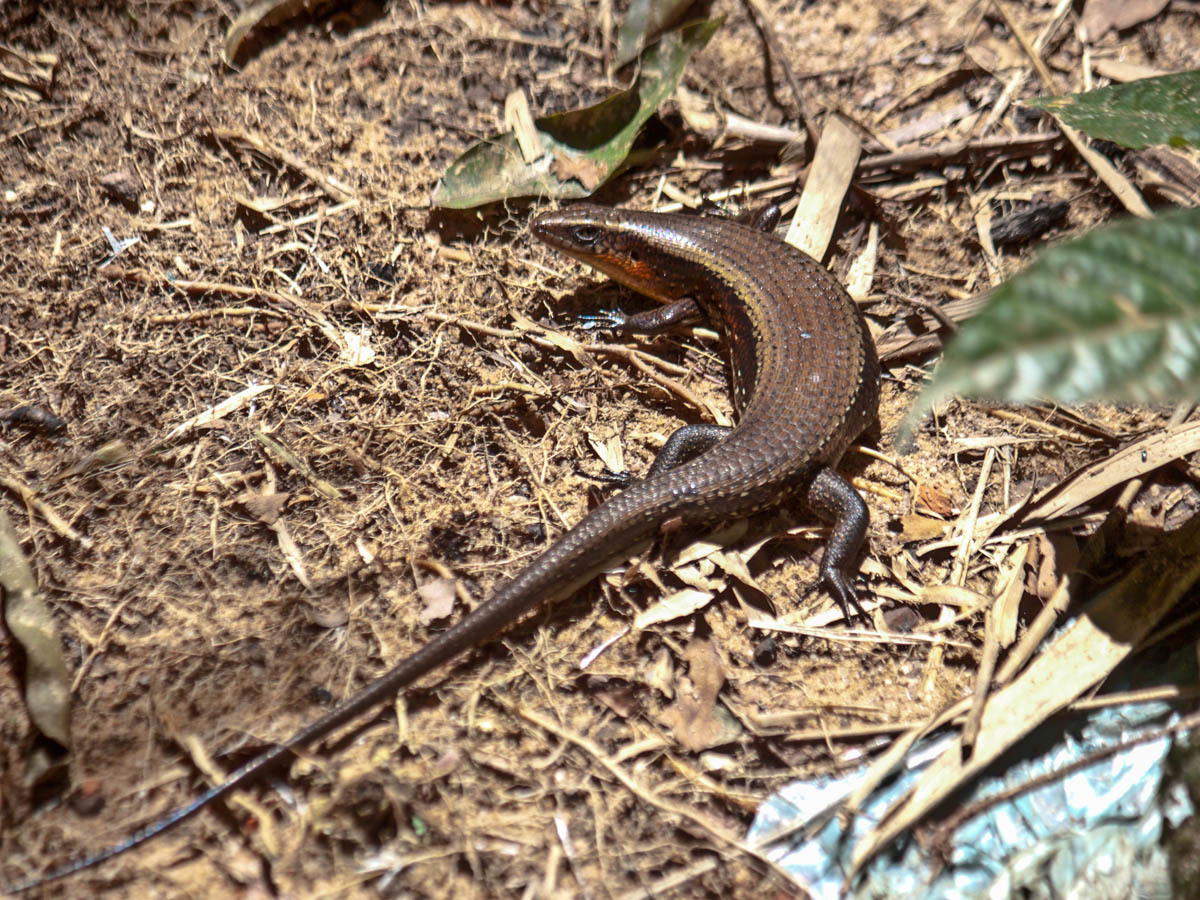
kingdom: Animalia
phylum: Chordata
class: Squamata
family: Scincidae
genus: Eutropis
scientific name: Eutropis multifasciata
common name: Common mabuya
